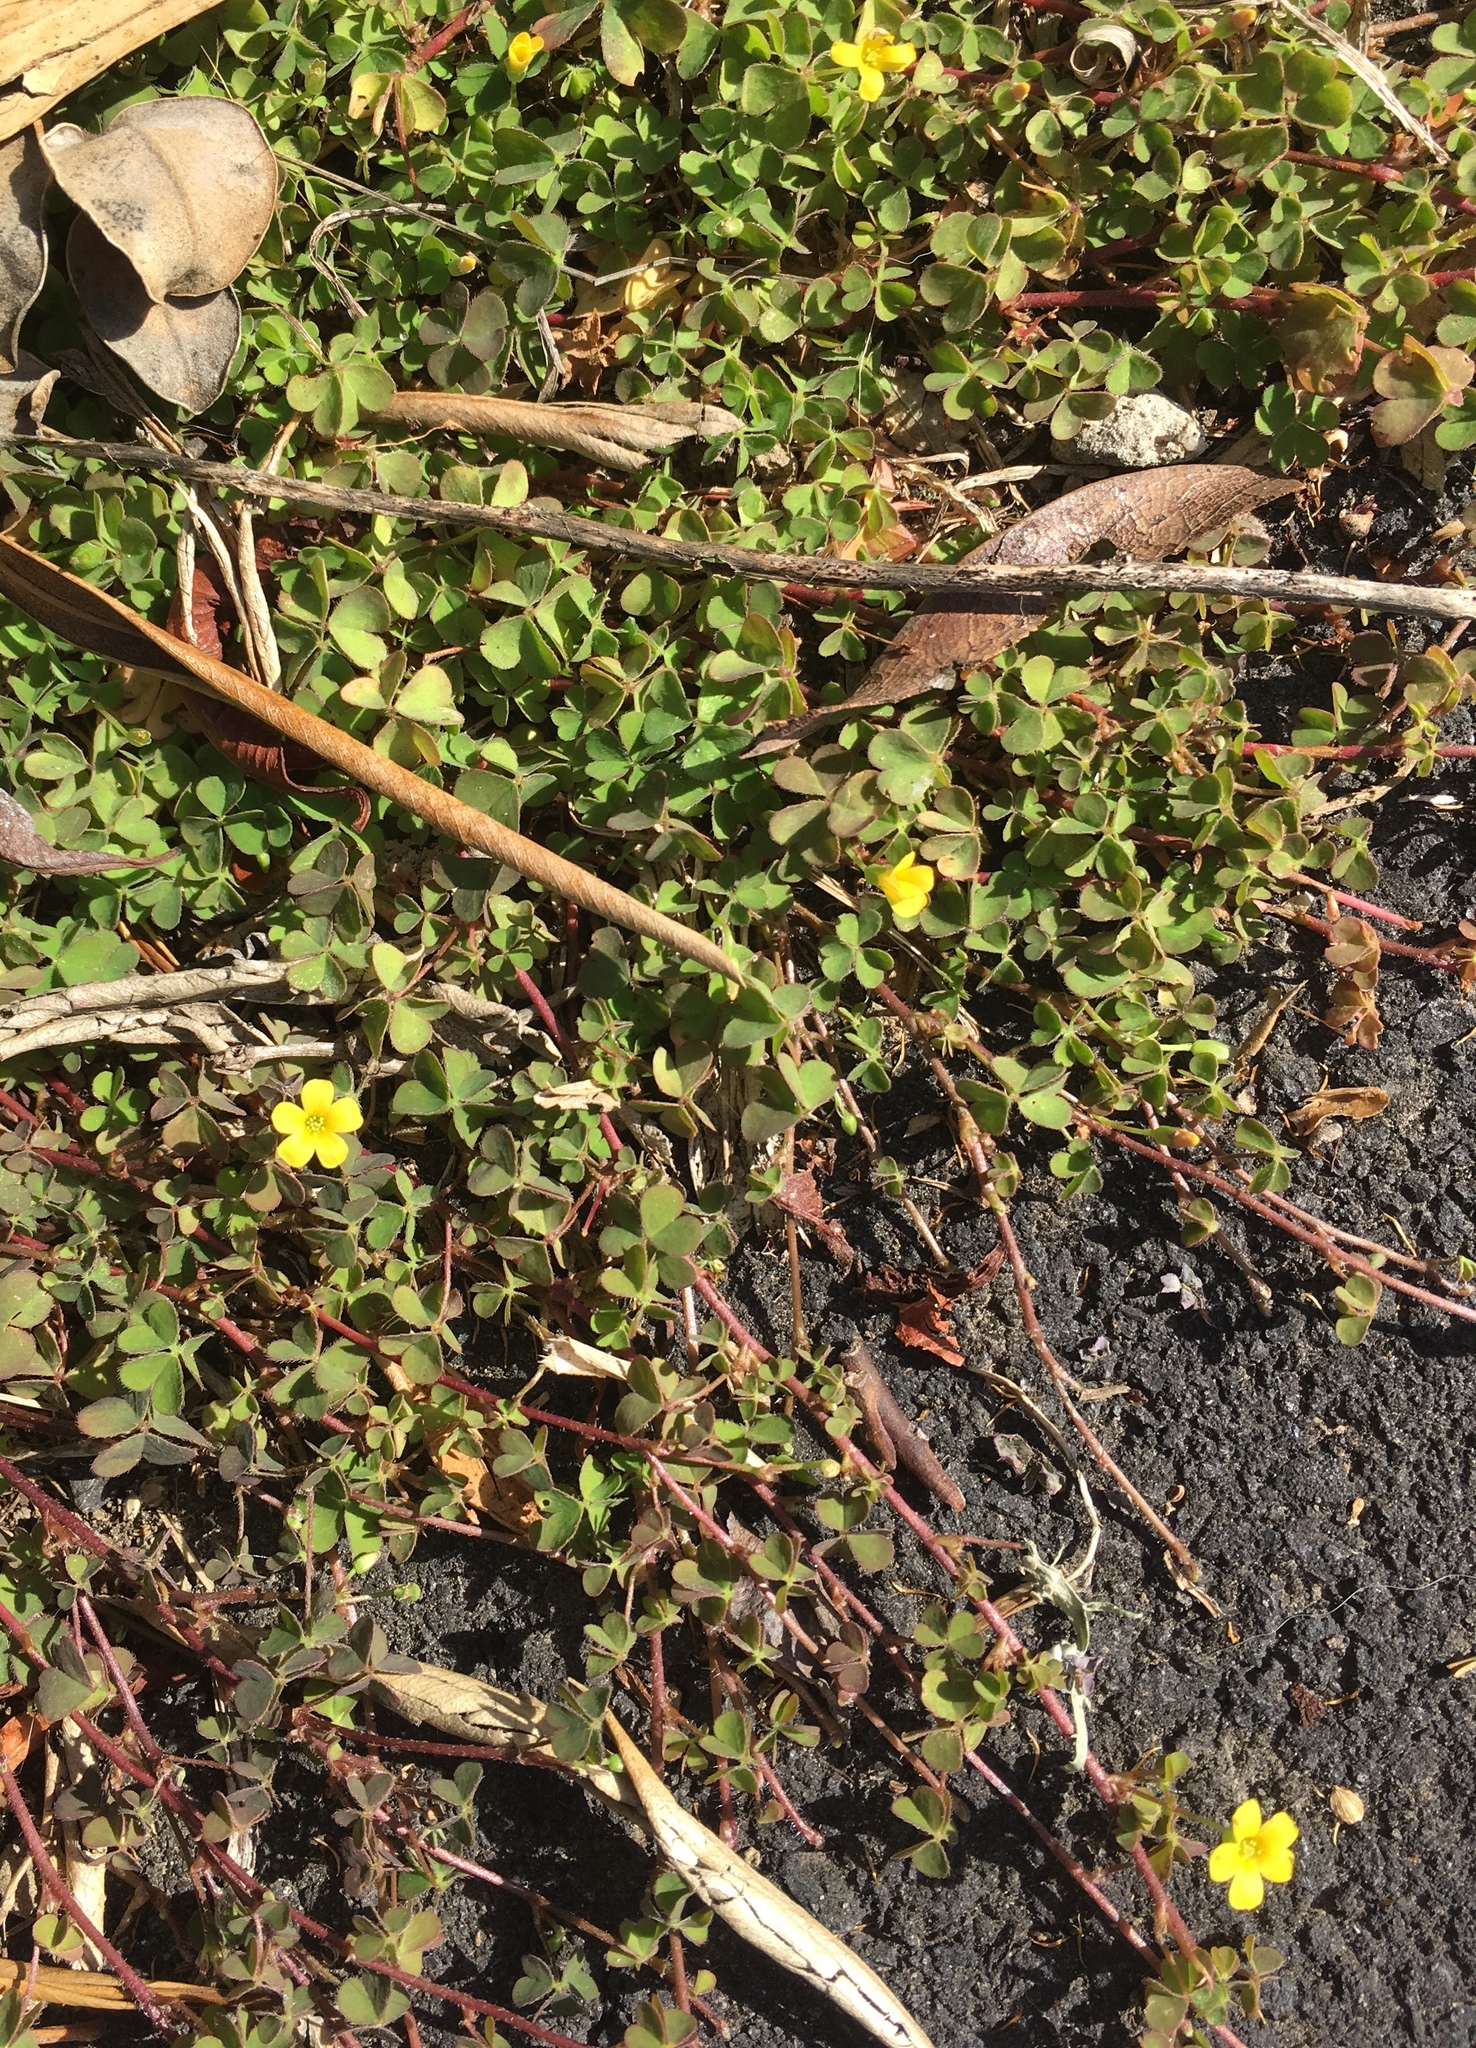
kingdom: Plantae
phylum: Tracheophyta
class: Magnoliopsida
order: Oxalidales
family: Oxalidaceae
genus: Oxalis
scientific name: Oxalis corniculata
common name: Procumbent yellow-sorrel
